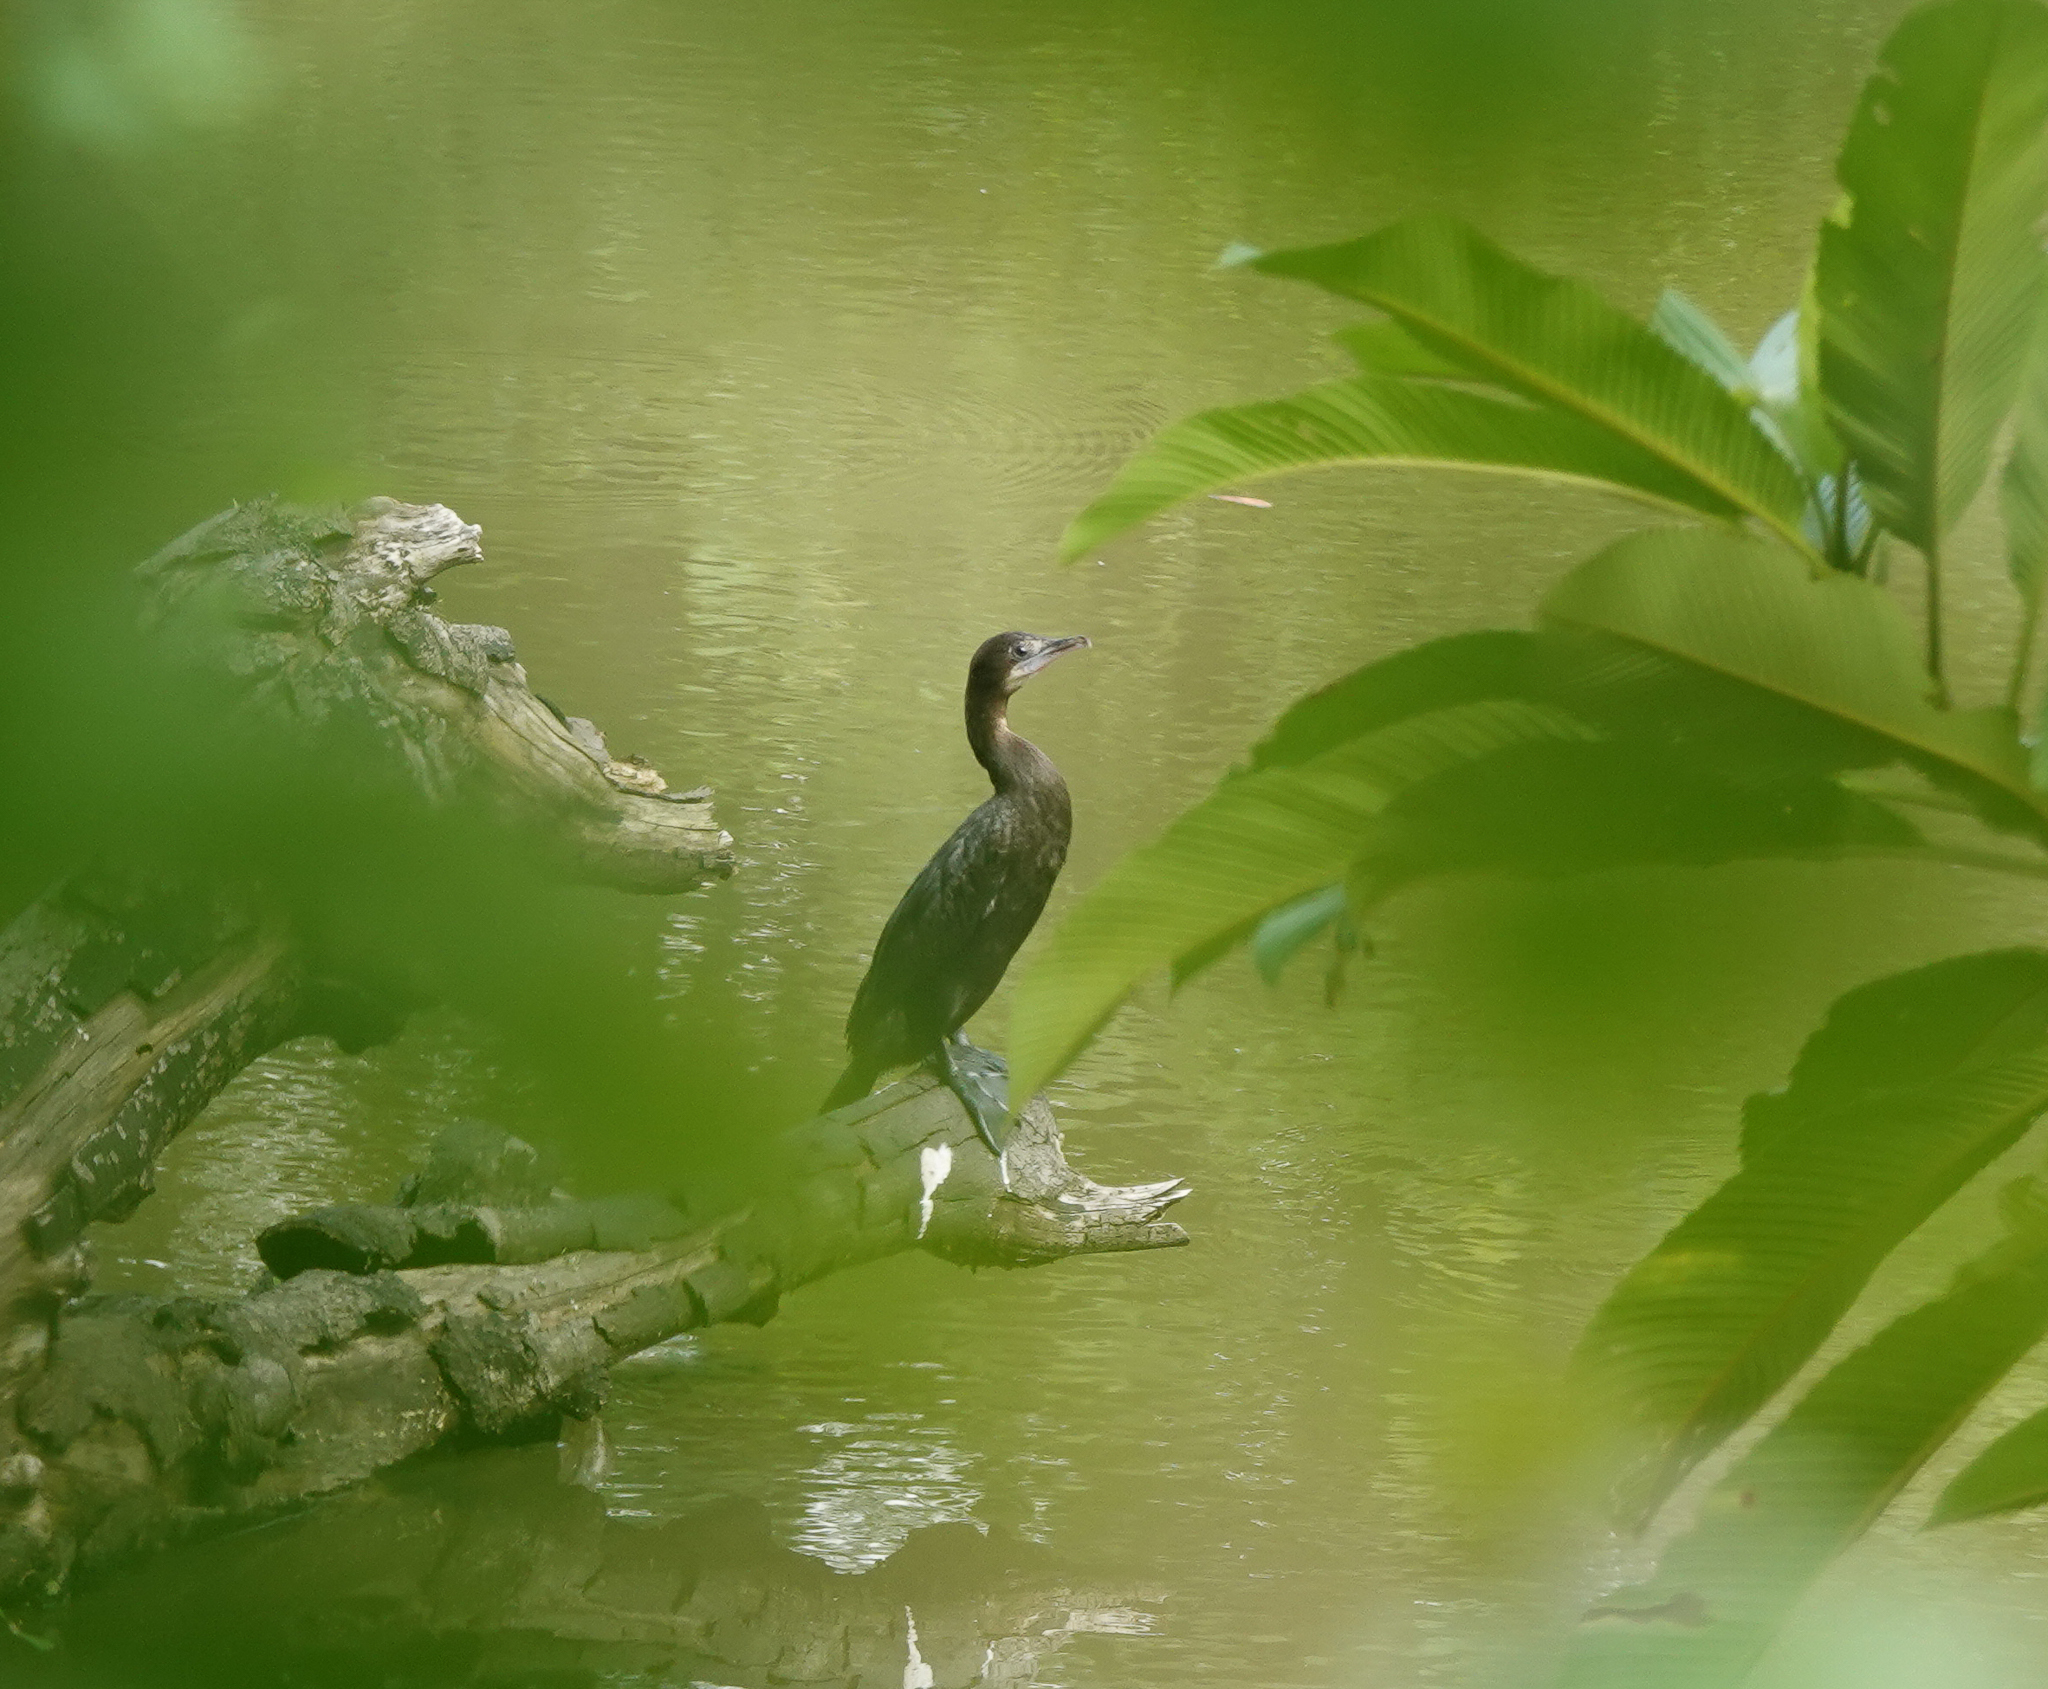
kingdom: Animalia
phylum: Chordata
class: Aves
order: Suliformes
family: Phalacrocoracidae
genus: Microcarbo
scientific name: Microcarbo niger
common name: Little cormorant
